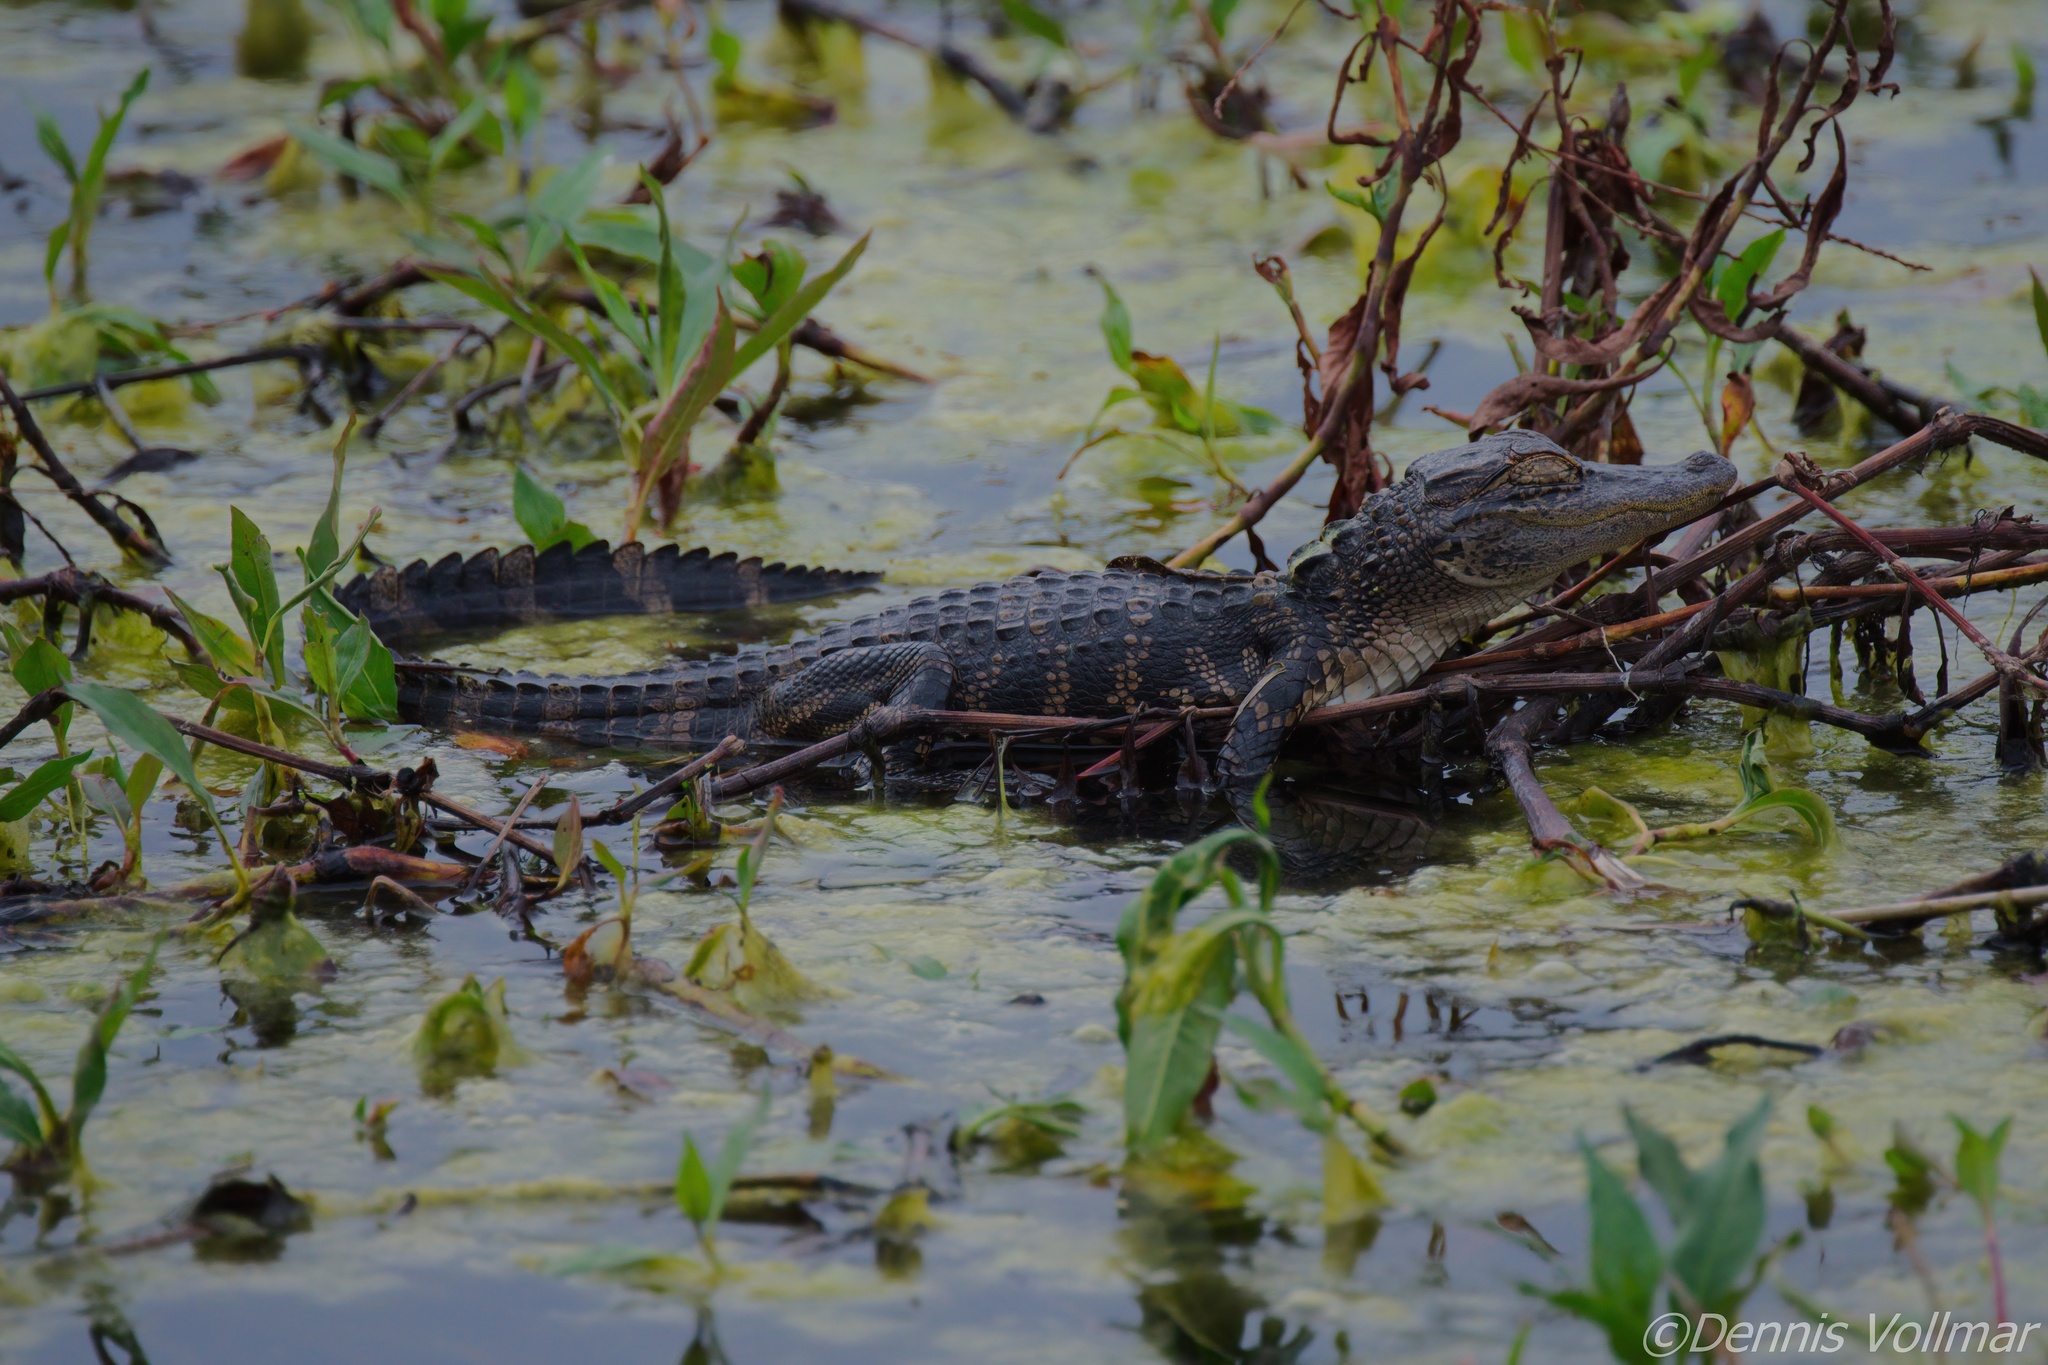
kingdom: Animalia
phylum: Chordata
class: Crocodylia
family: Alligatoridae
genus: Alligator
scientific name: Alligator mississippiensis
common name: American alligator
